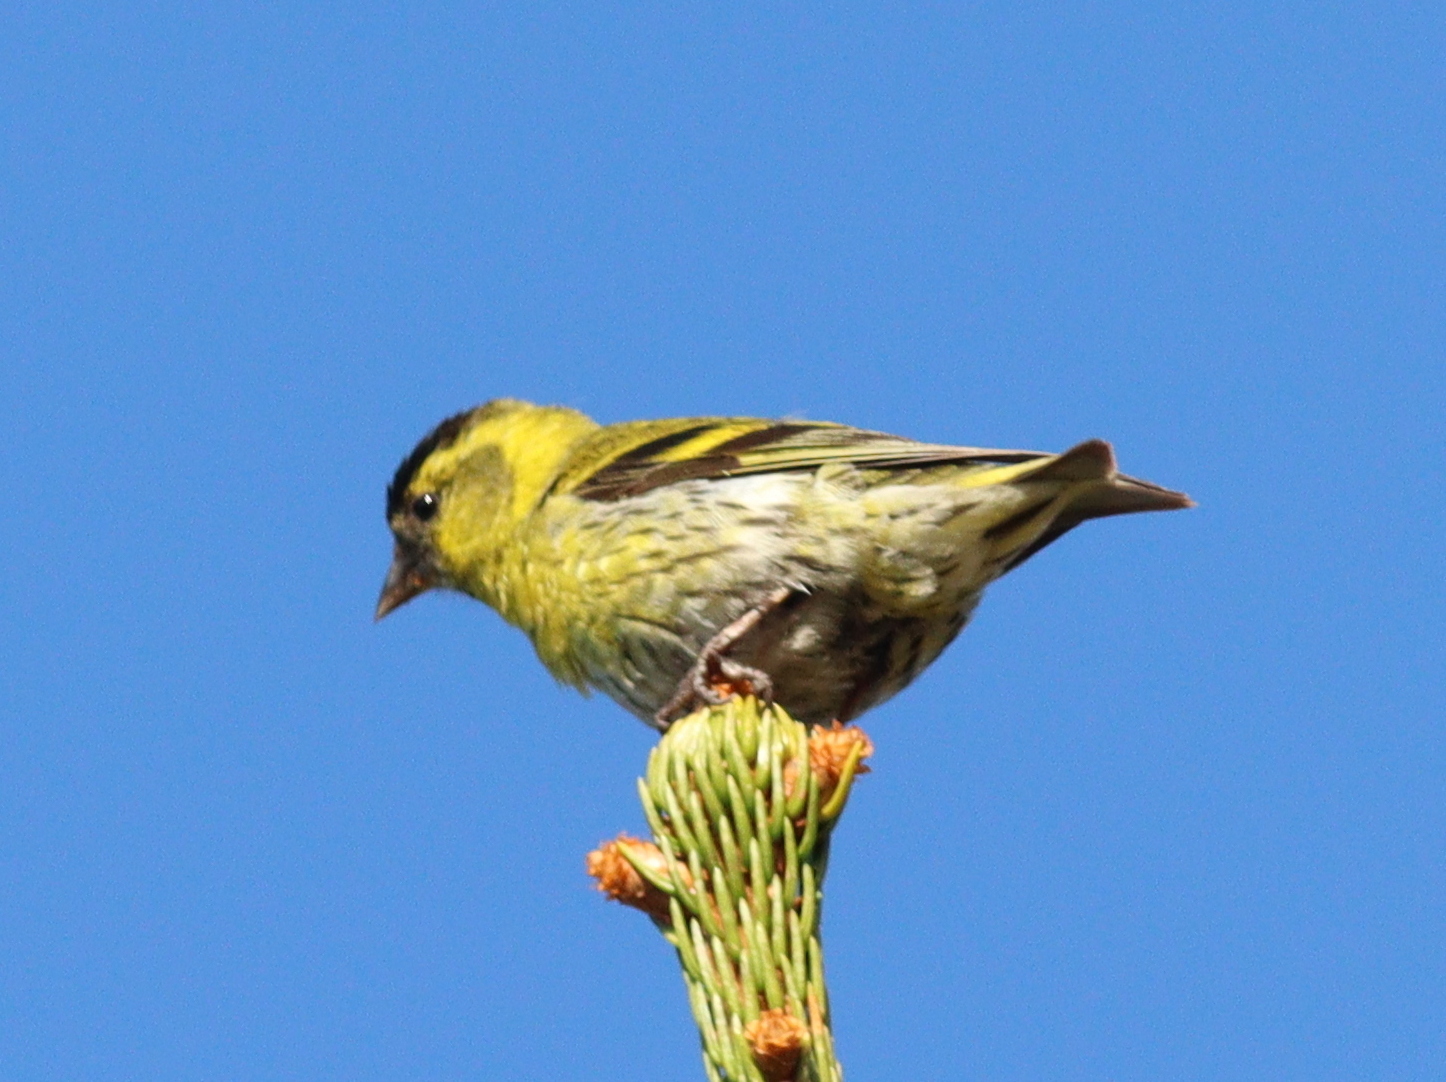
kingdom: Animalia
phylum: Chordata
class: Aves
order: Passeriformes
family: Fringillidae
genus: Spinus
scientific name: Spinus spinus
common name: Eurasian siskin
